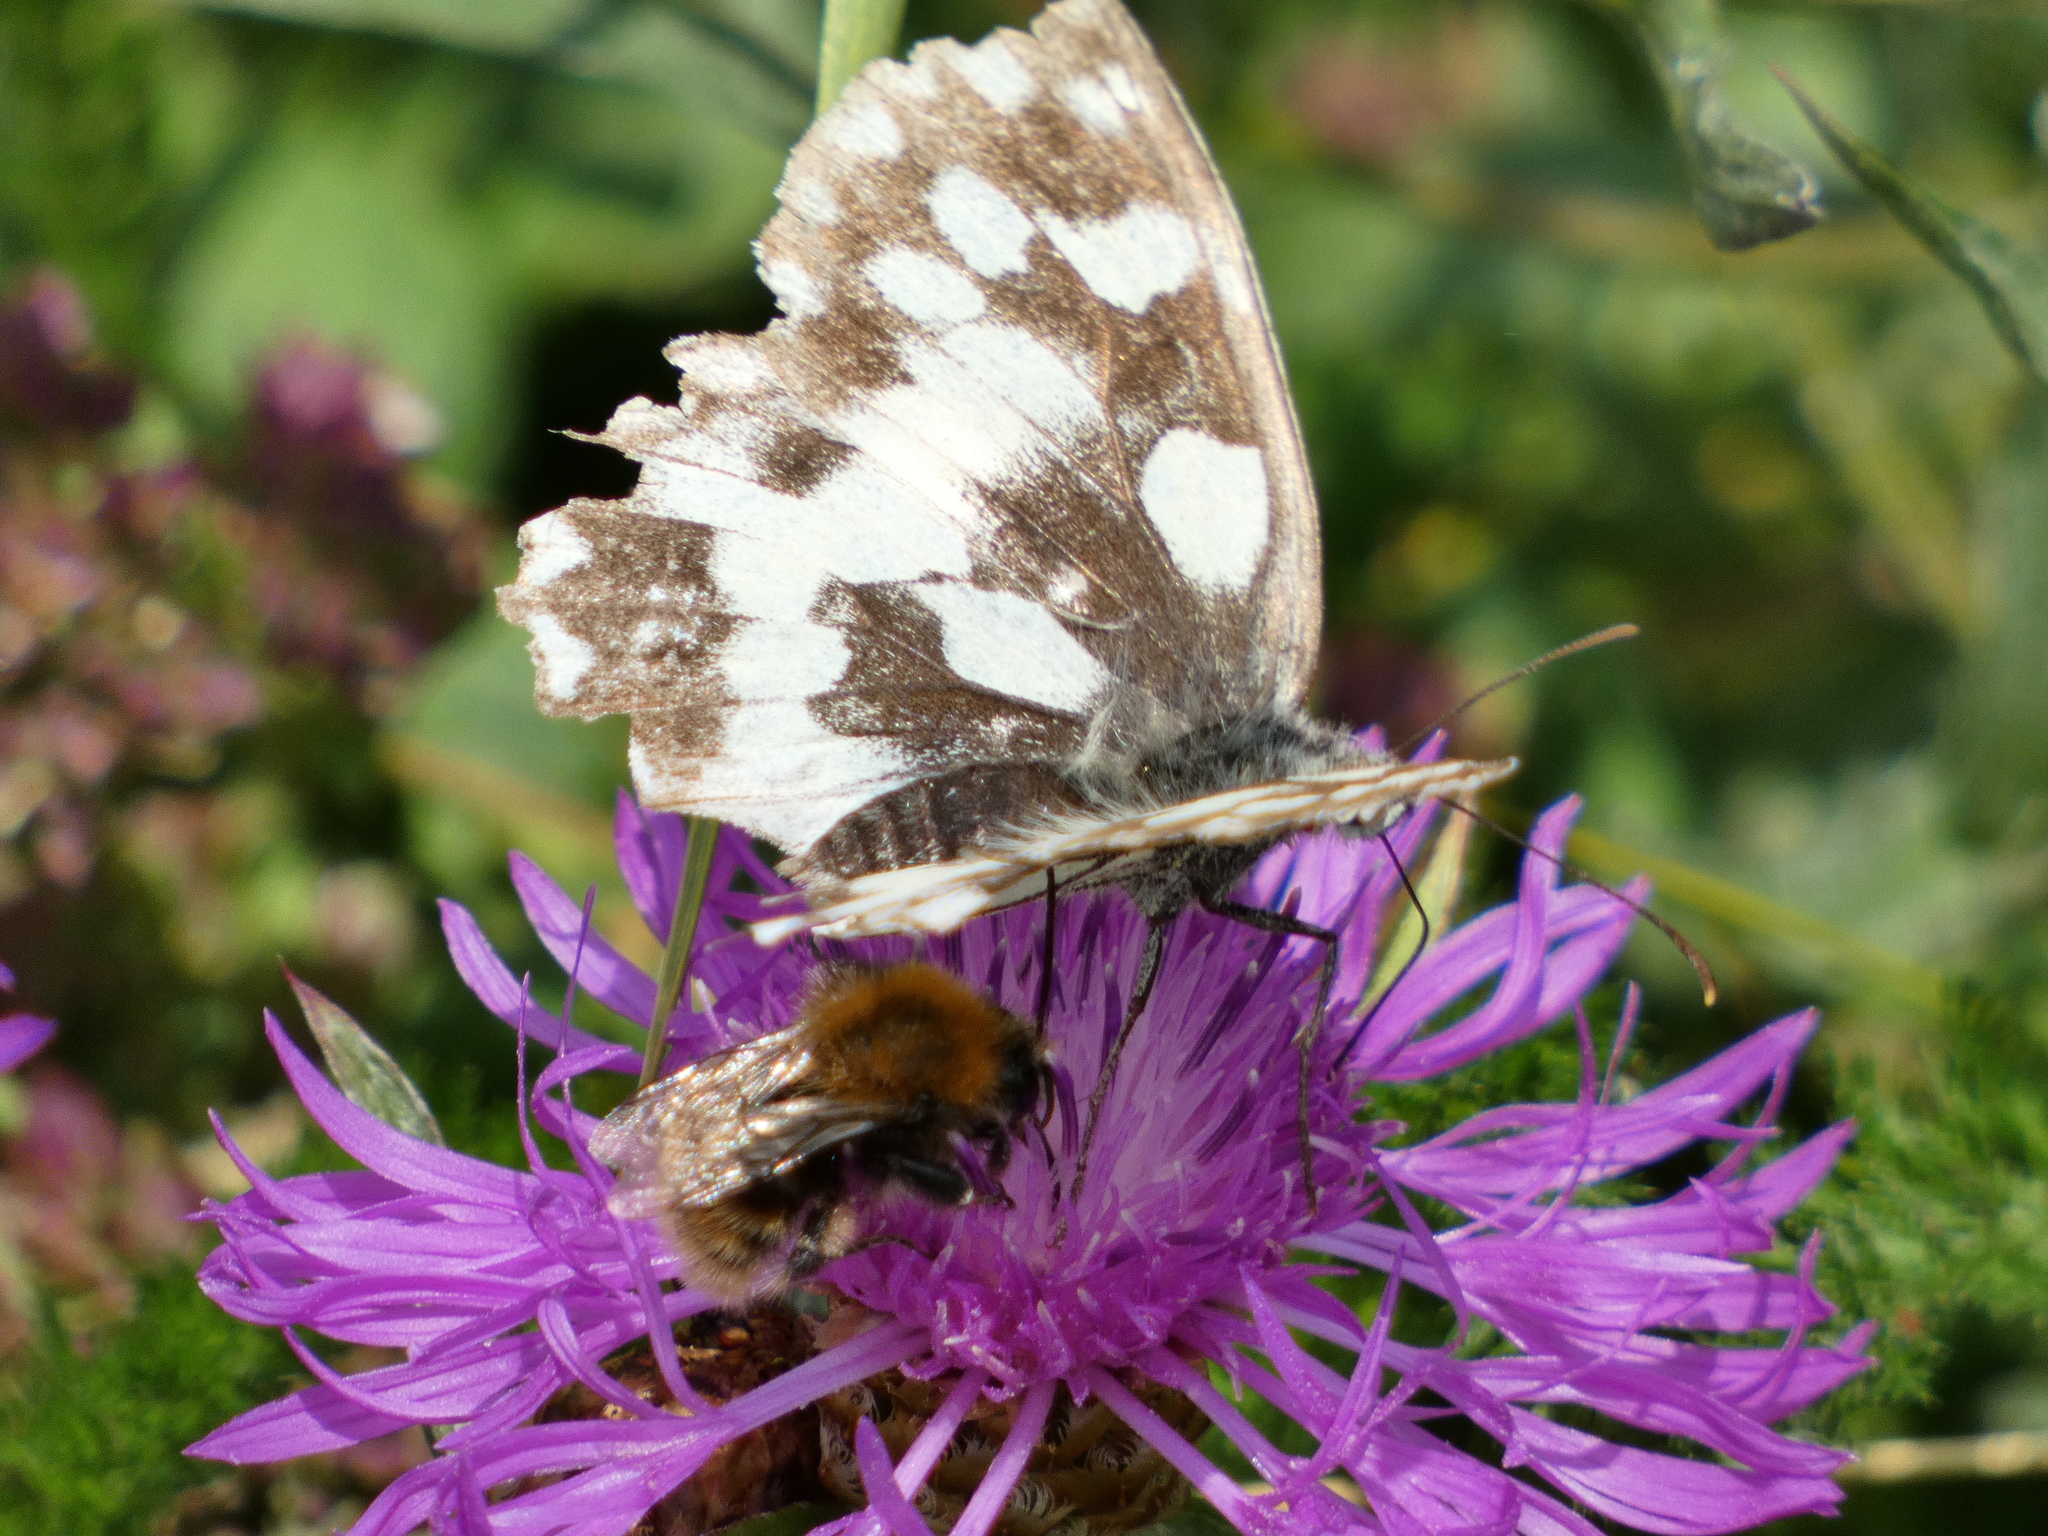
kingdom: Animalia
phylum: Arthropoda
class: Insecta
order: Lepidoptera
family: Nymphalidae
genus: Melanargia
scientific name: Melanargia galathea
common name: Marbled white
